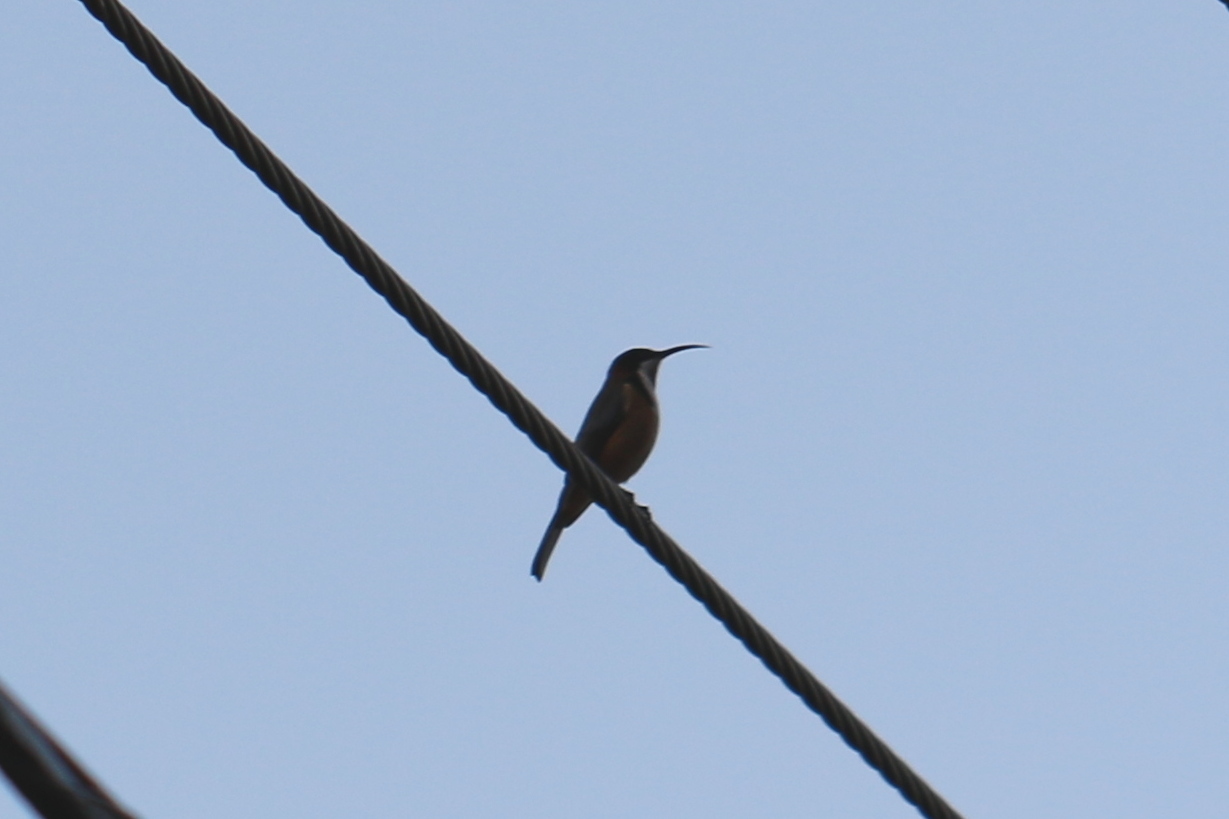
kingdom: Animalia
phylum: Chordata
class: Aves
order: Passeriformes
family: Meliphagidae
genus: Acanthorhynchus
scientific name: Acanthorhynchus tenuirostris
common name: Eastern spinebill
